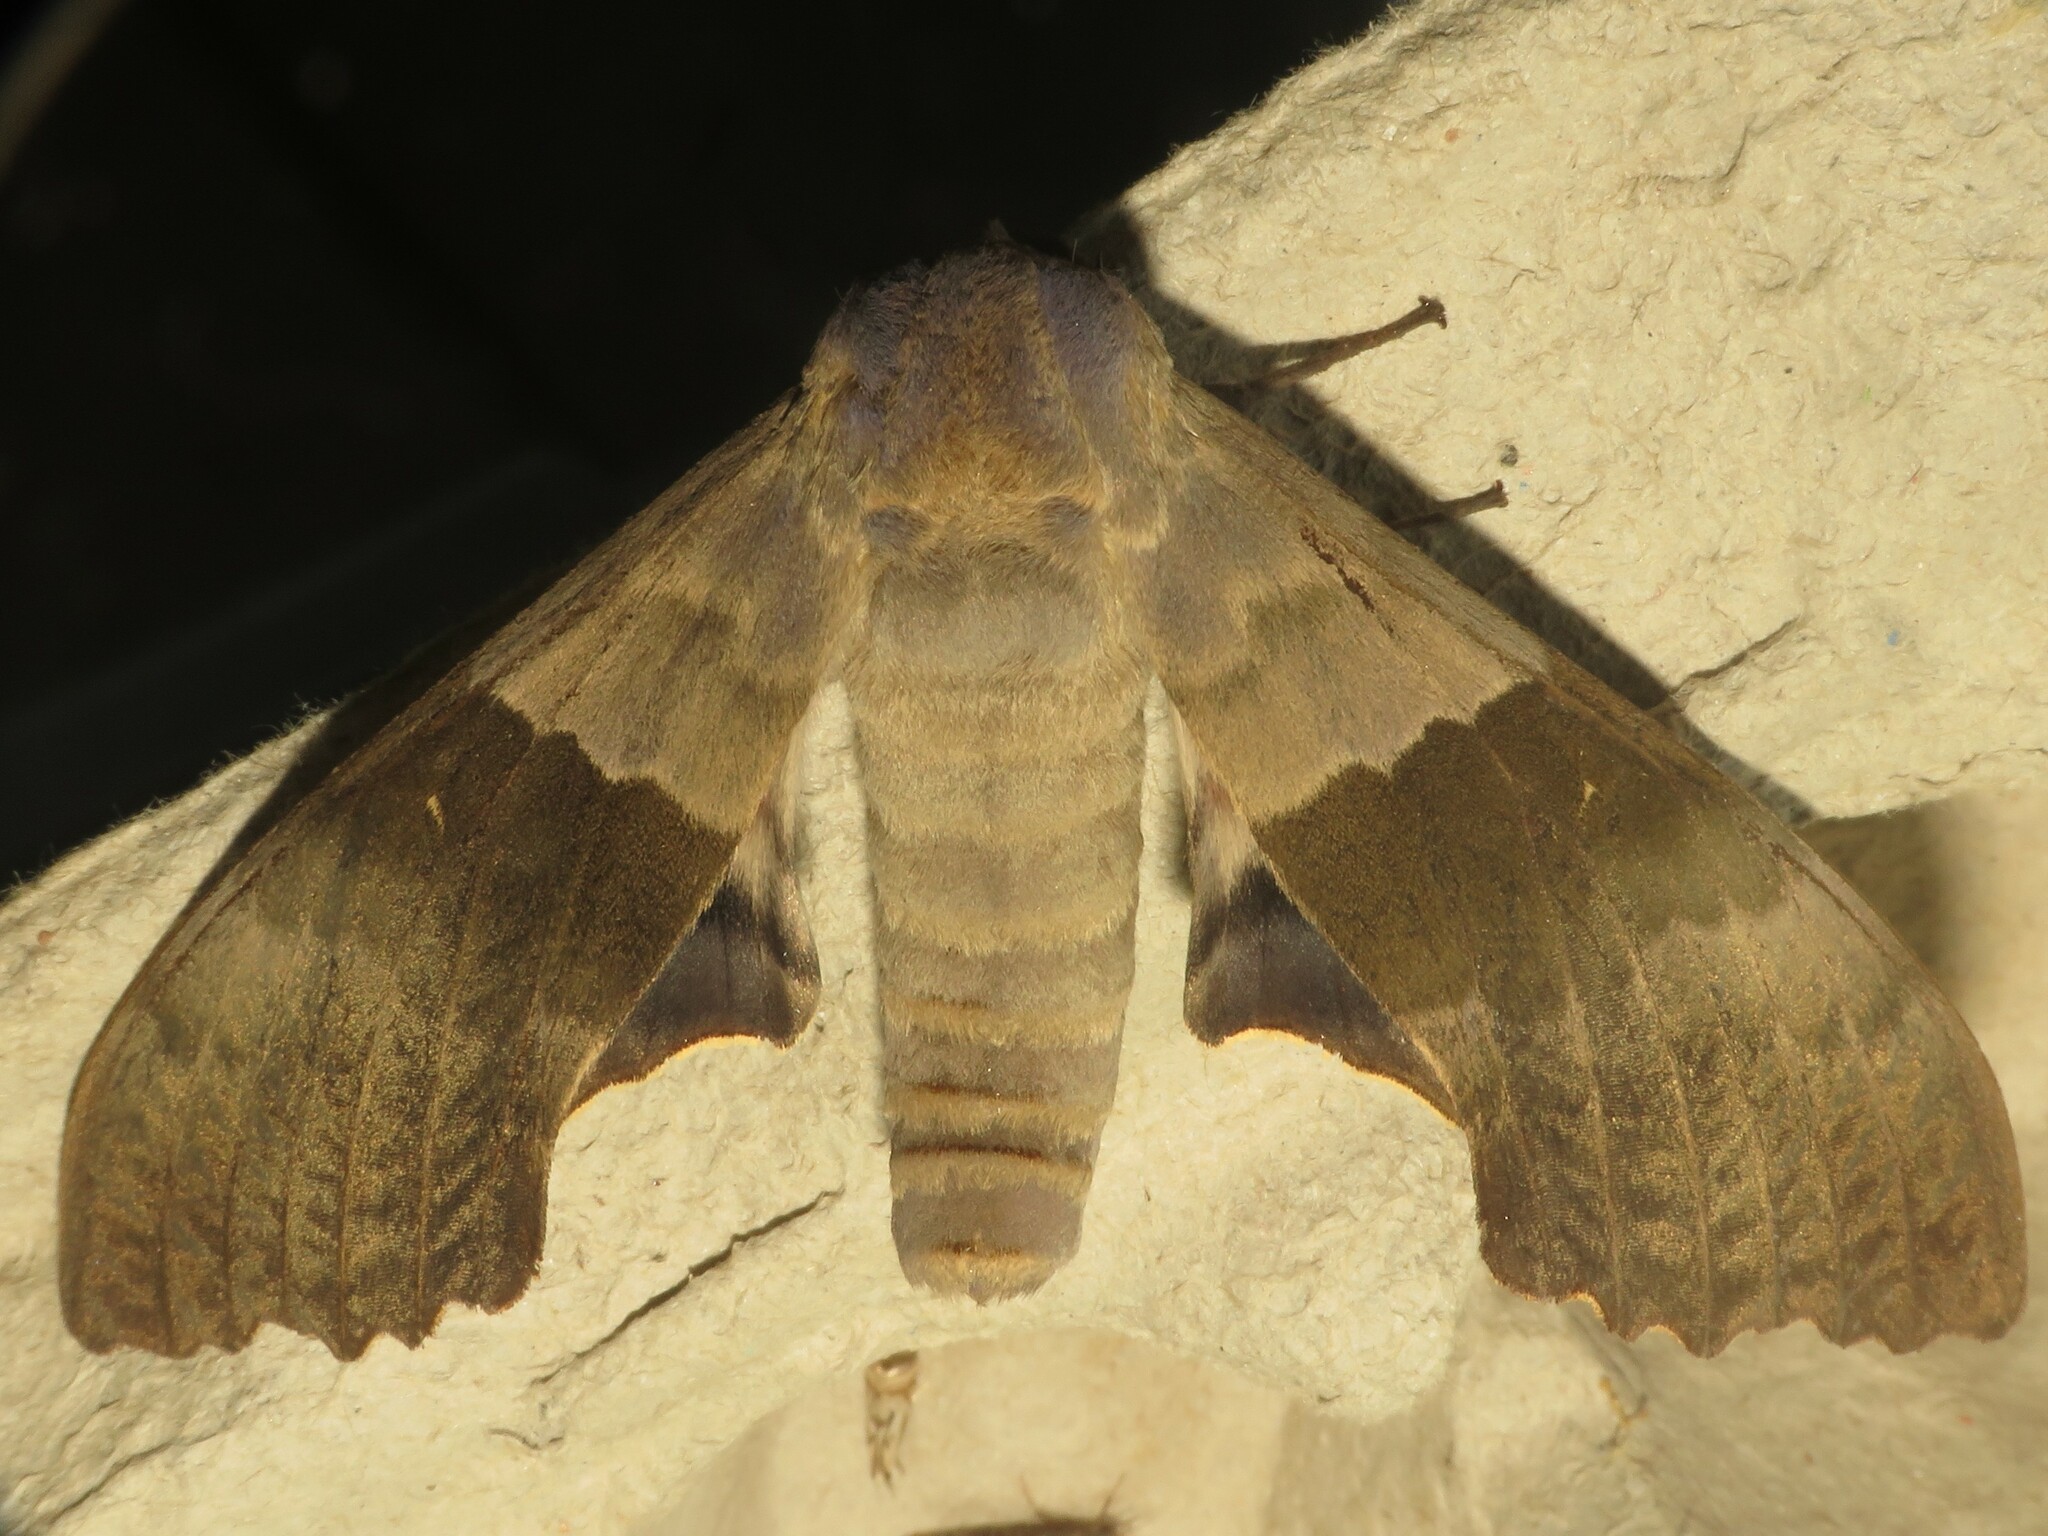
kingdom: Animalia
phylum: Arthropoda
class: Insecta
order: Lepidoptera
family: Sphingidae
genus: Pachysphinx
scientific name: Pachysphinx modesta
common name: Big poplar sphinx
